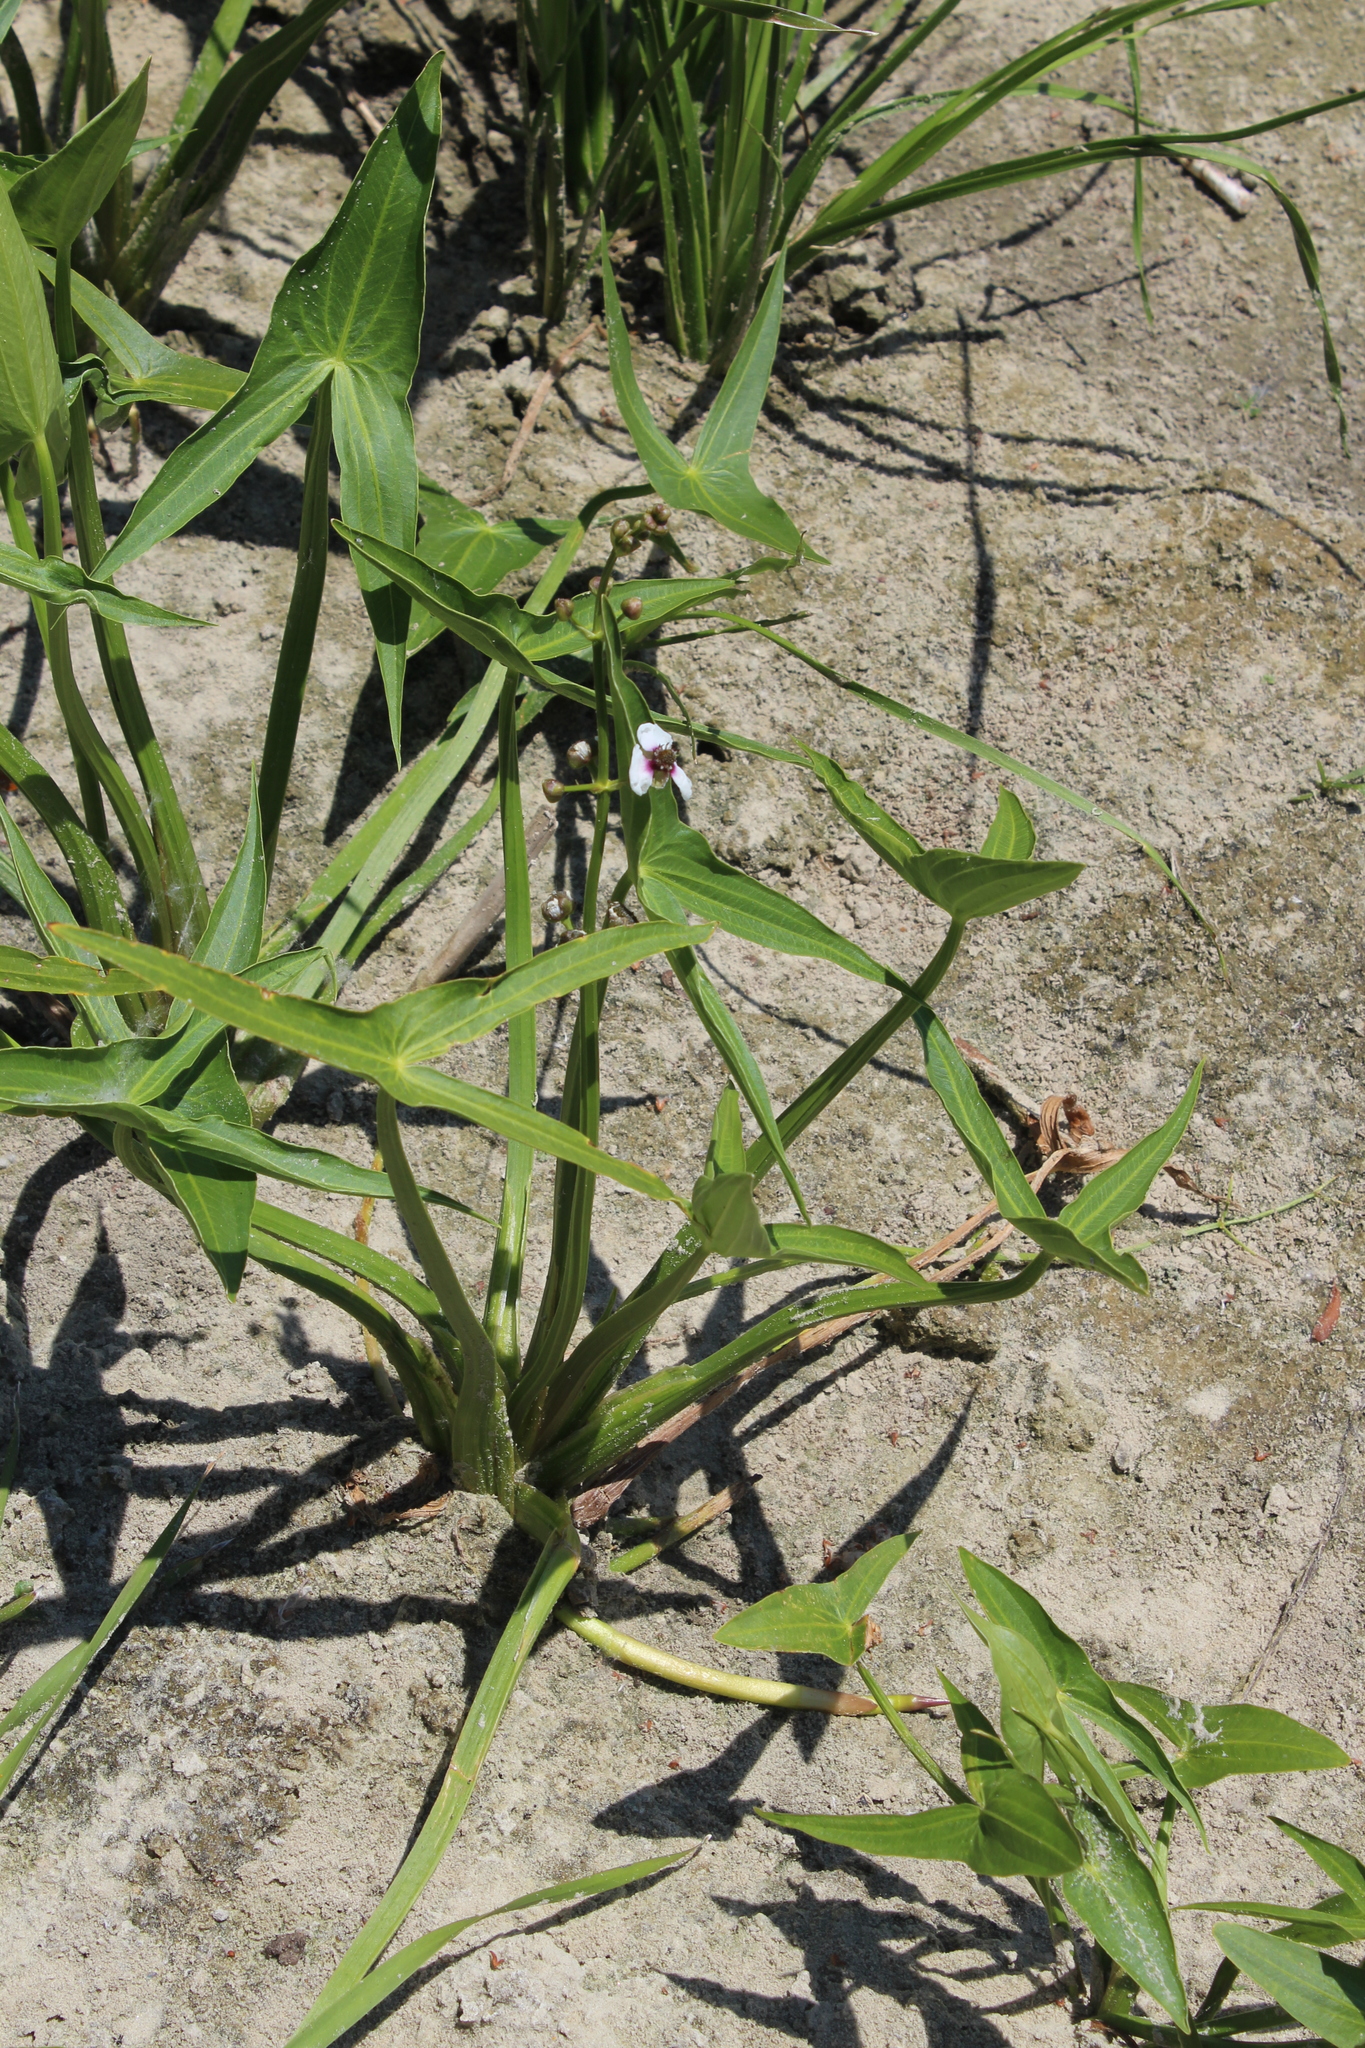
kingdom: Plantae
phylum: Tracheophyta
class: Liliopsida
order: Alismatales
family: Alismataceae
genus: Sagittaria
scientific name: Sagittaria sagittifolia
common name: Arrowhead
